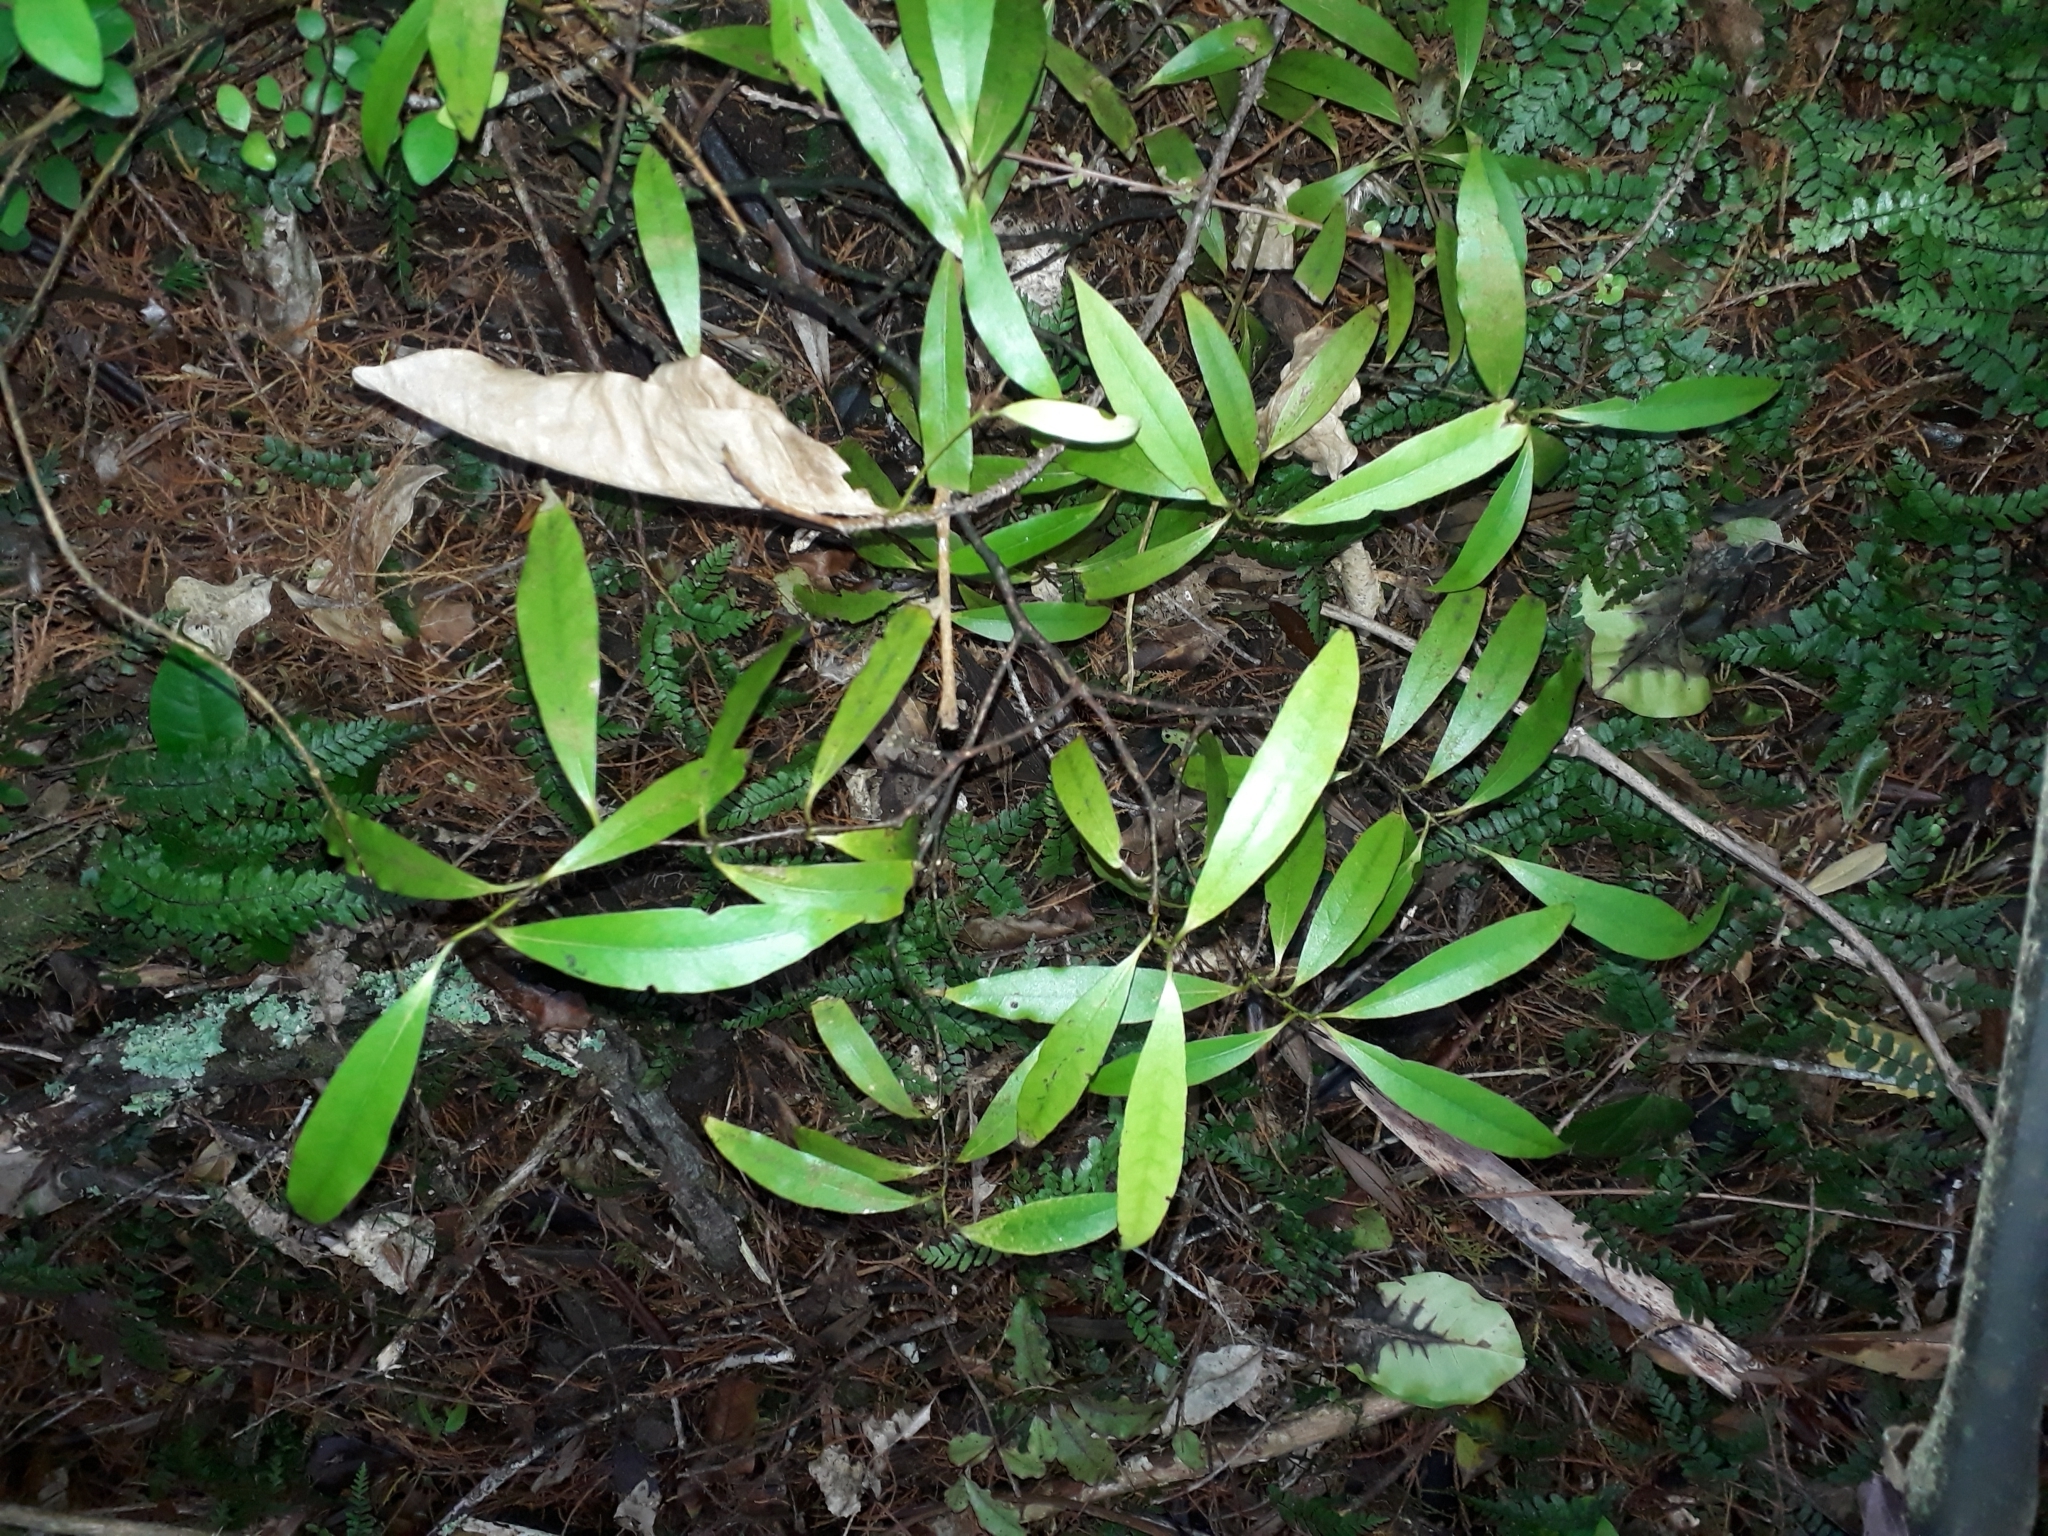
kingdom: Plantae
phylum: Tracheophyta
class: Magnoliopsida
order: Laurales
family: Lauraceae
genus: Beilschmiedia
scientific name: Beilschmiedia tawa
